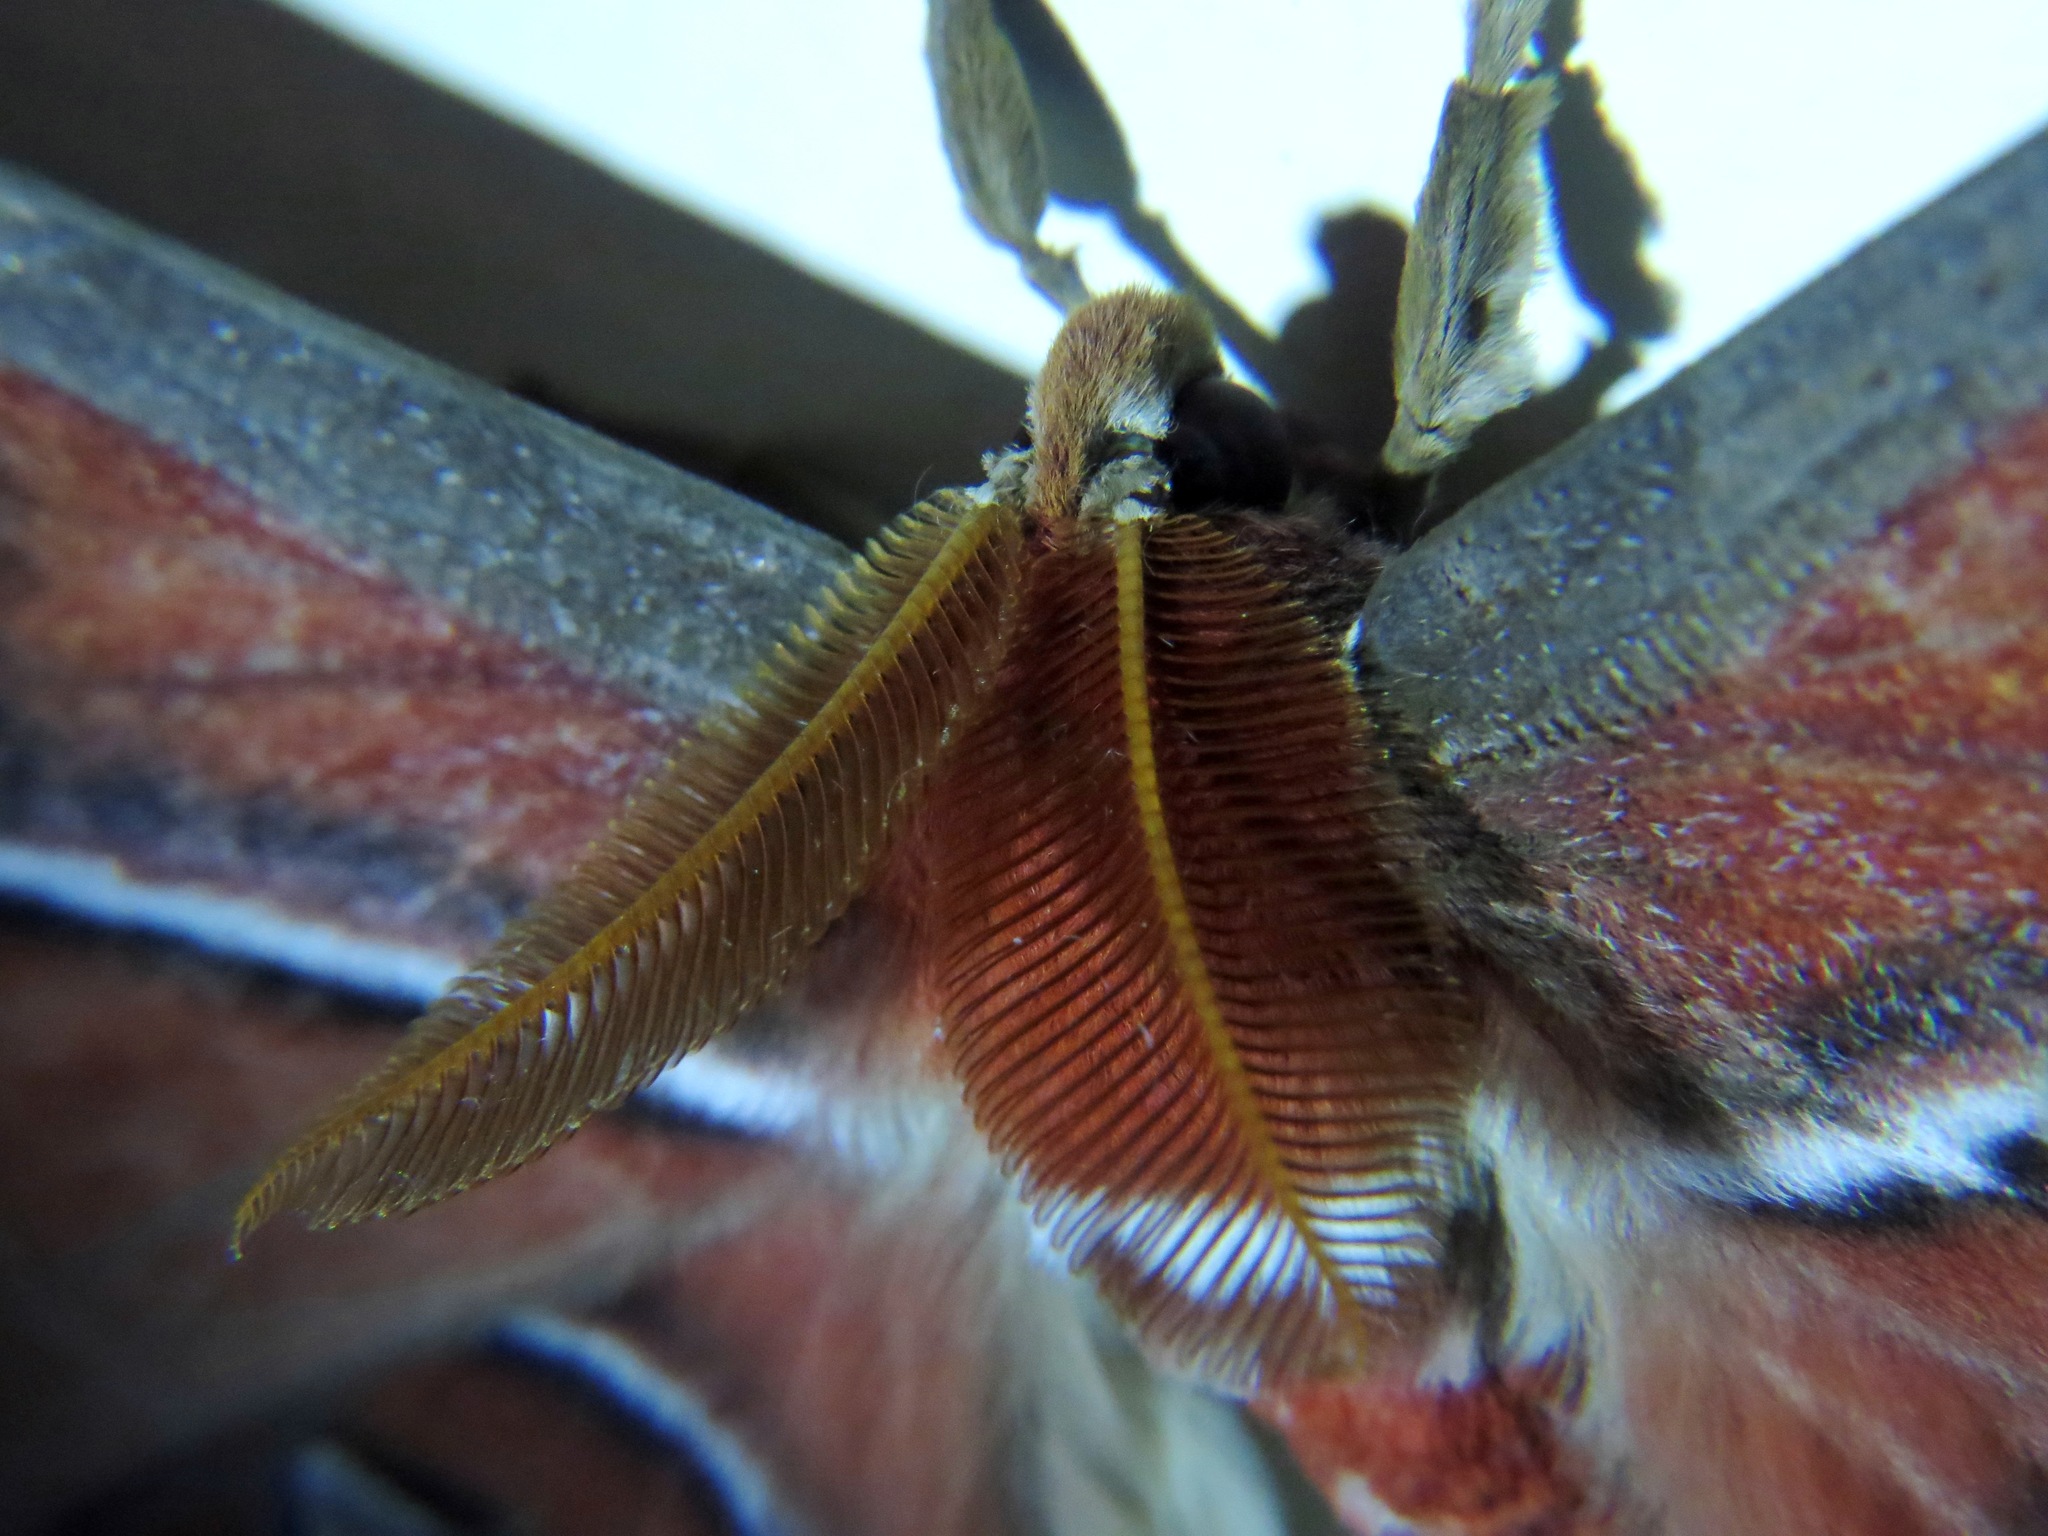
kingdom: Animalia
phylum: Arthropoda
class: Insecta
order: Lepidoptera
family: Saturniidae
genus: Attacus
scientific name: Attacus atlas
